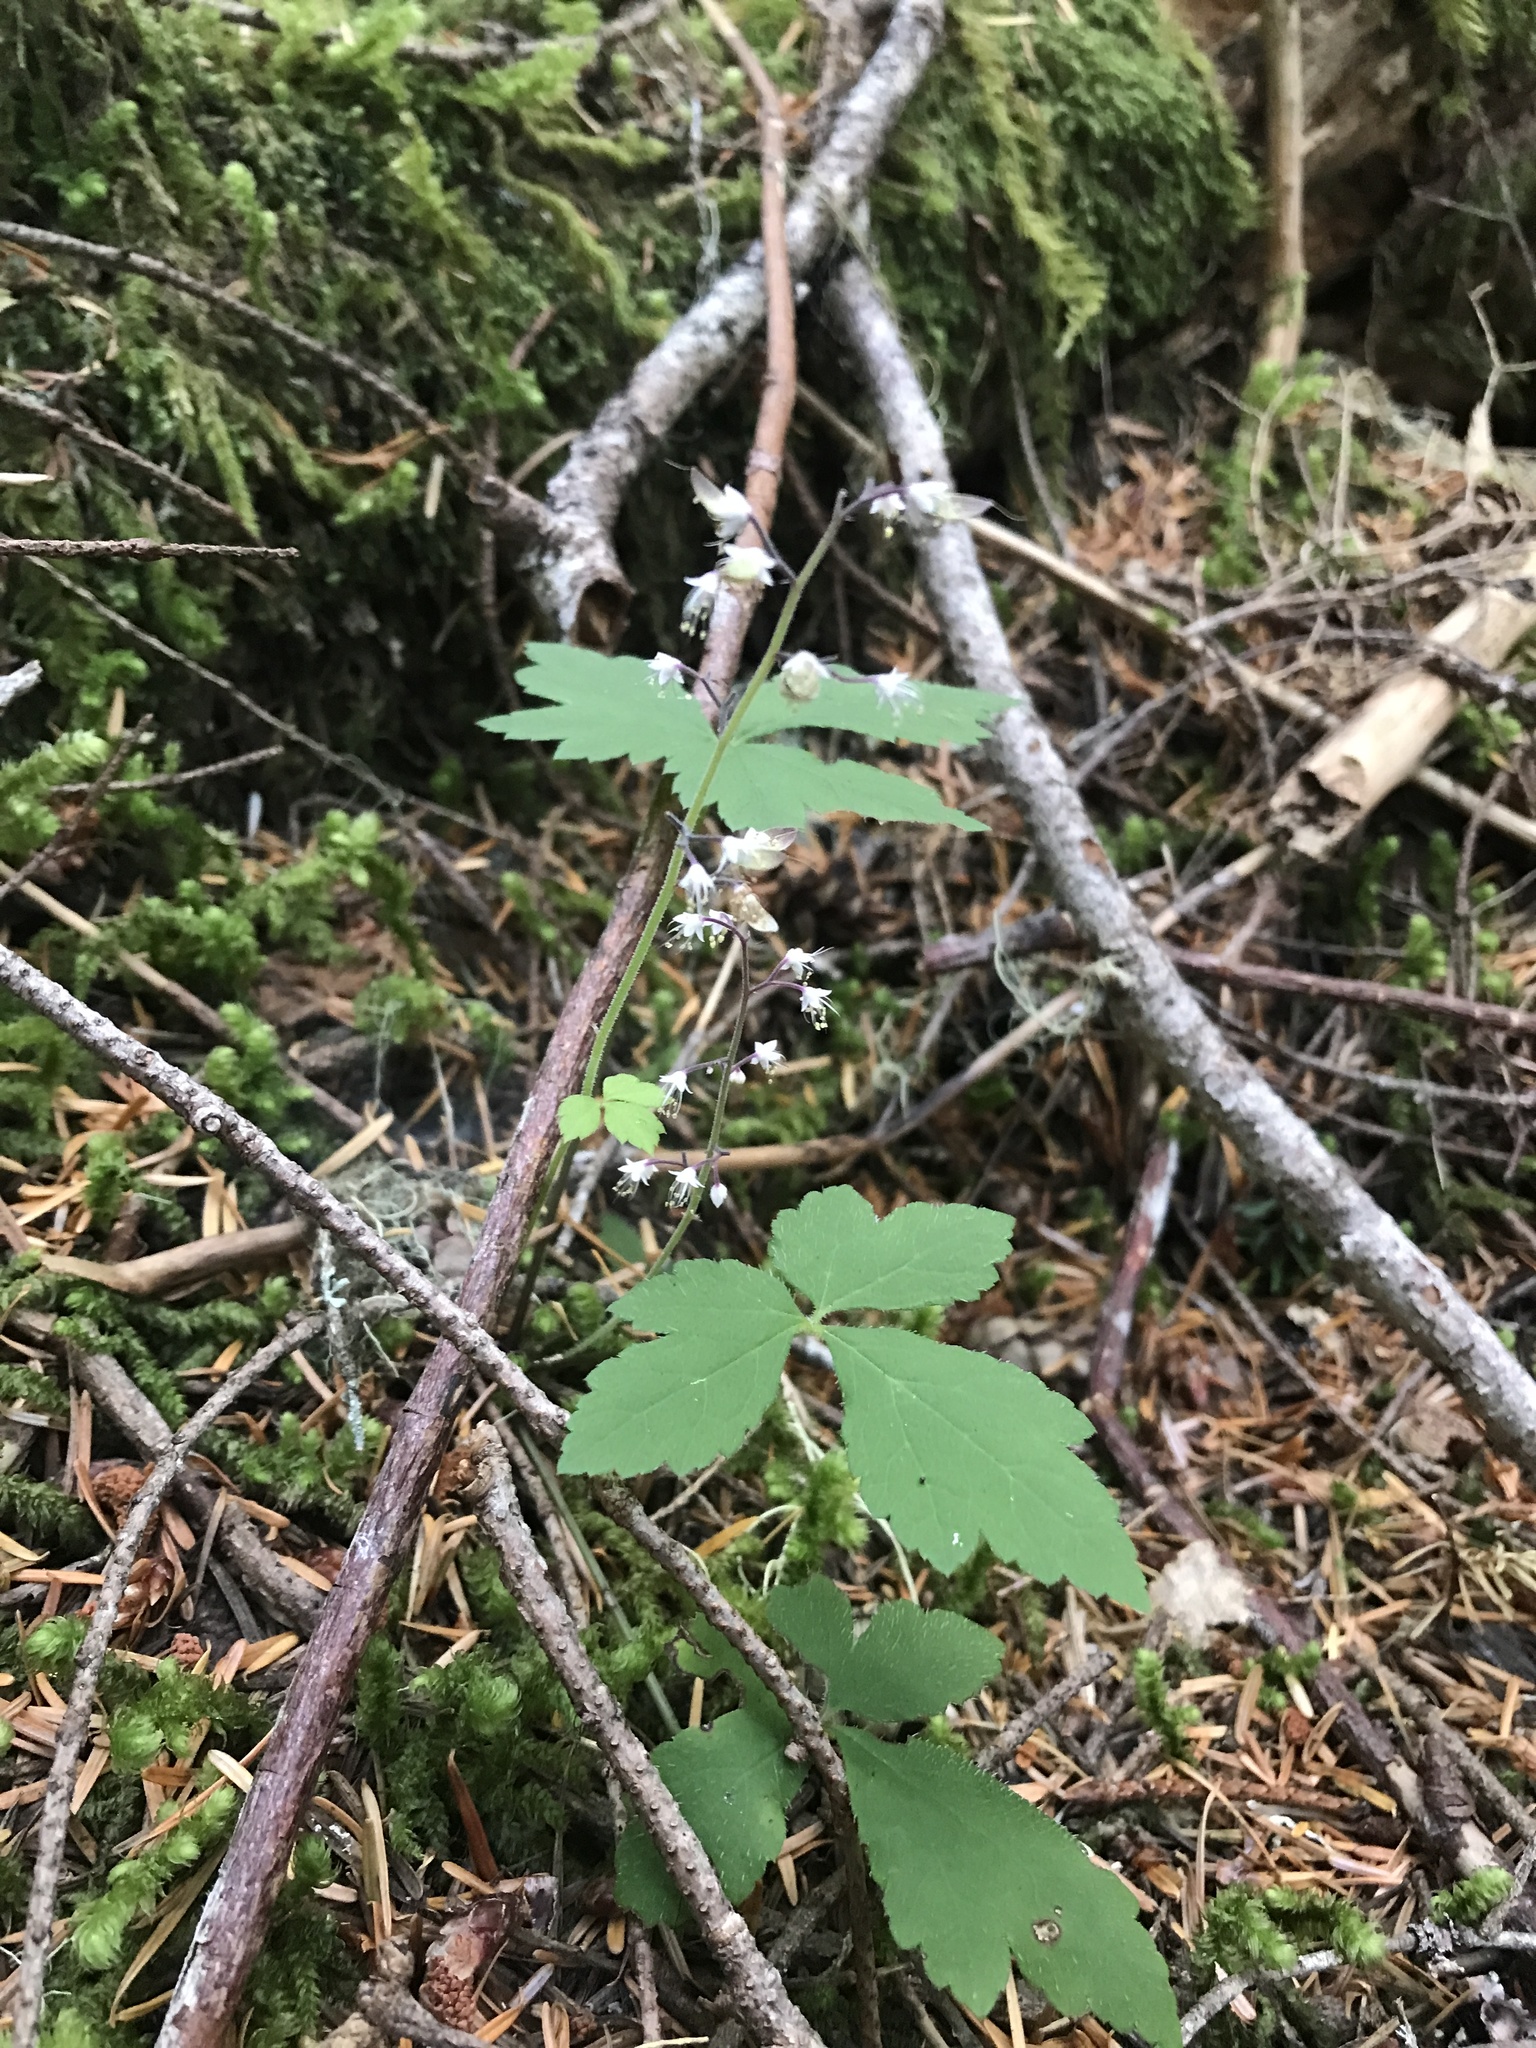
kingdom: Plantae
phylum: Tracheophyta
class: Magnoliopsida
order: Saxifragales
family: Saxifragaceae
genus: Tiarella
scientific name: Tiarella trifoliata
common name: Sugar-scoop
